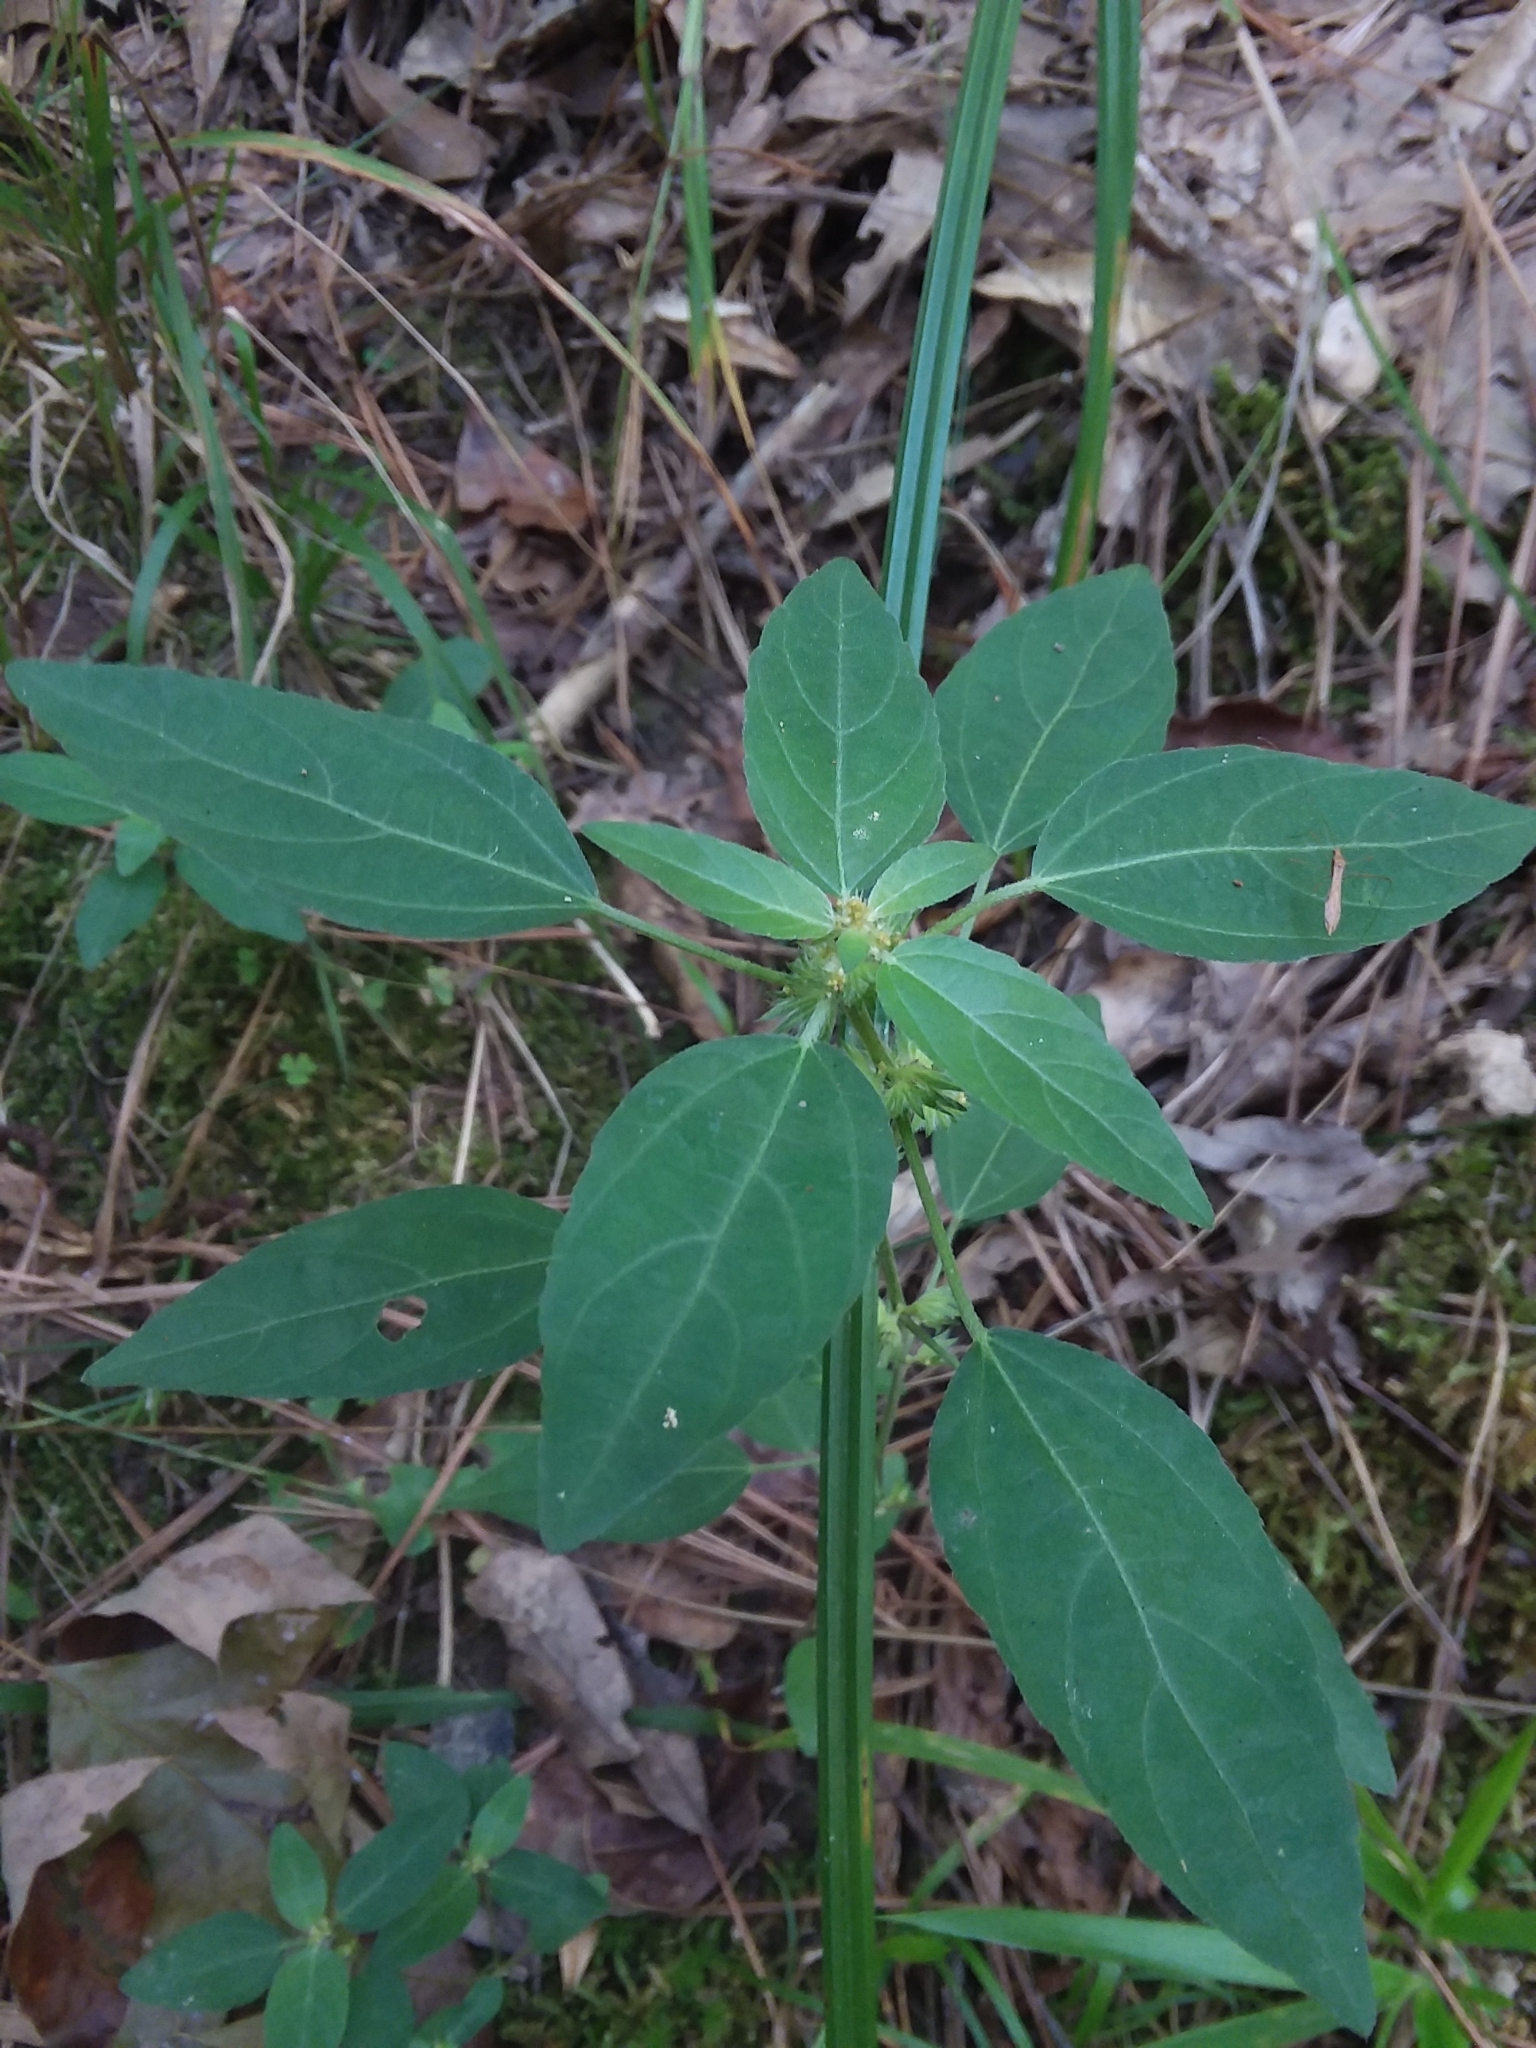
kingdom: Plantae
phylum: Tracheophyta
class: Magnoliopsida
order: Malpighiales
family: Euphorbiaceae
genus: Acalypha
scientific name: Acalypha virginica
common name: Virginia copperleaf
